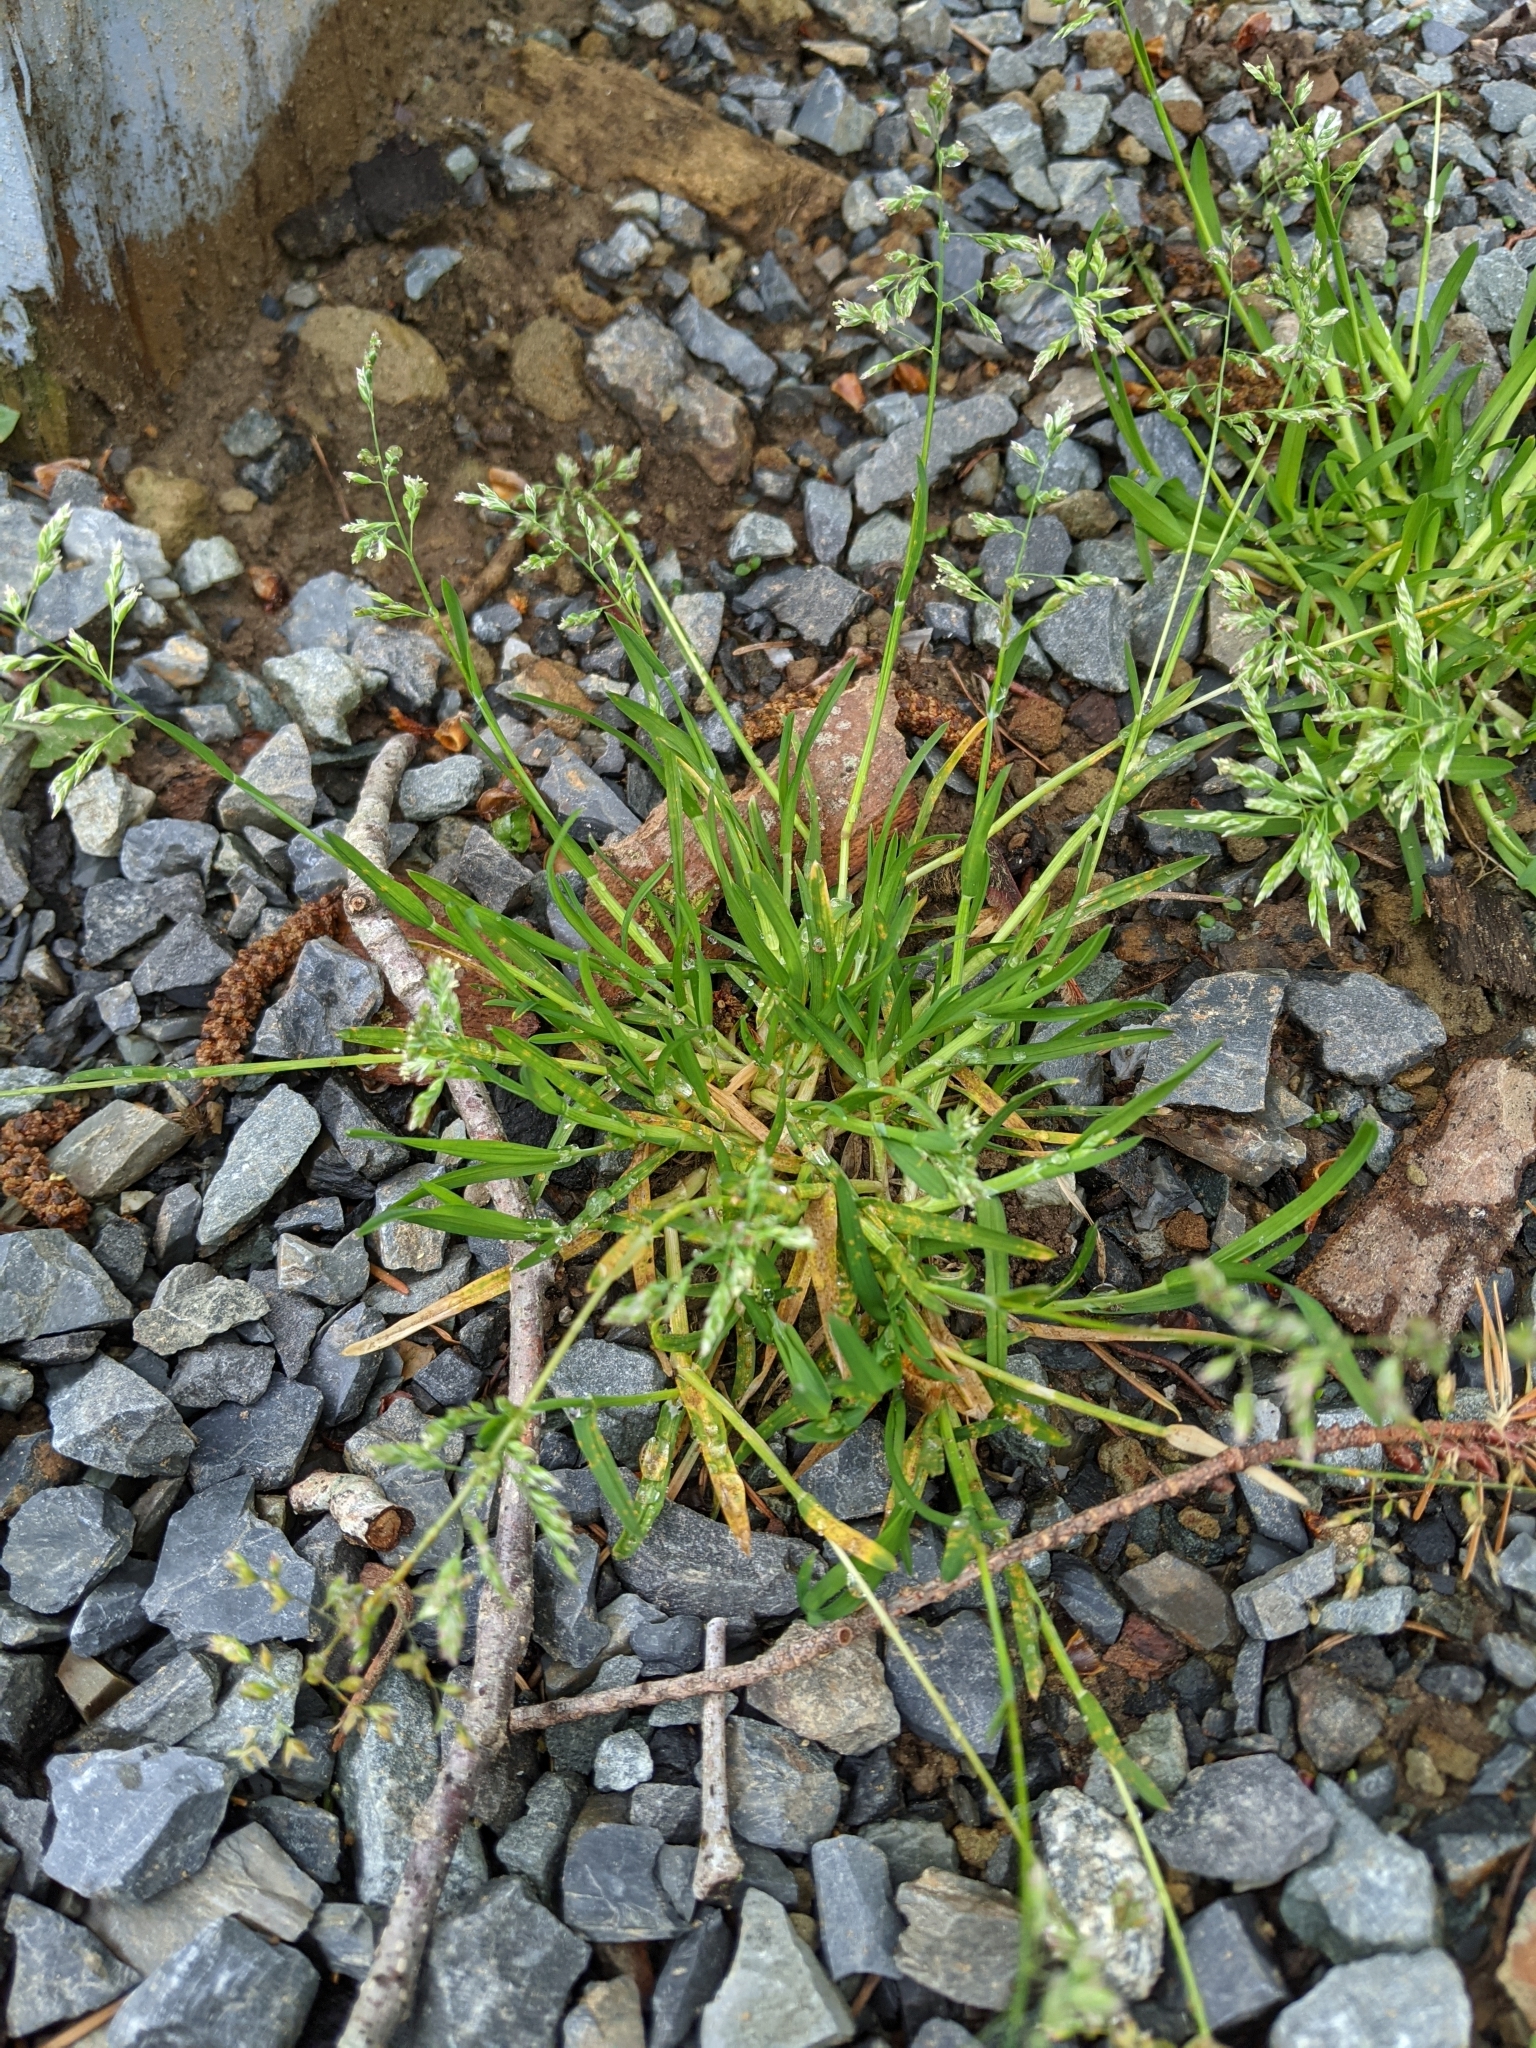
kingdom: Plantae
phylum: Tracheophyta
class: Liliopsida
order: Poales
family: Poaceae
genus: Poa
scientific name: Poa annua
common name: Annual bluegrass
